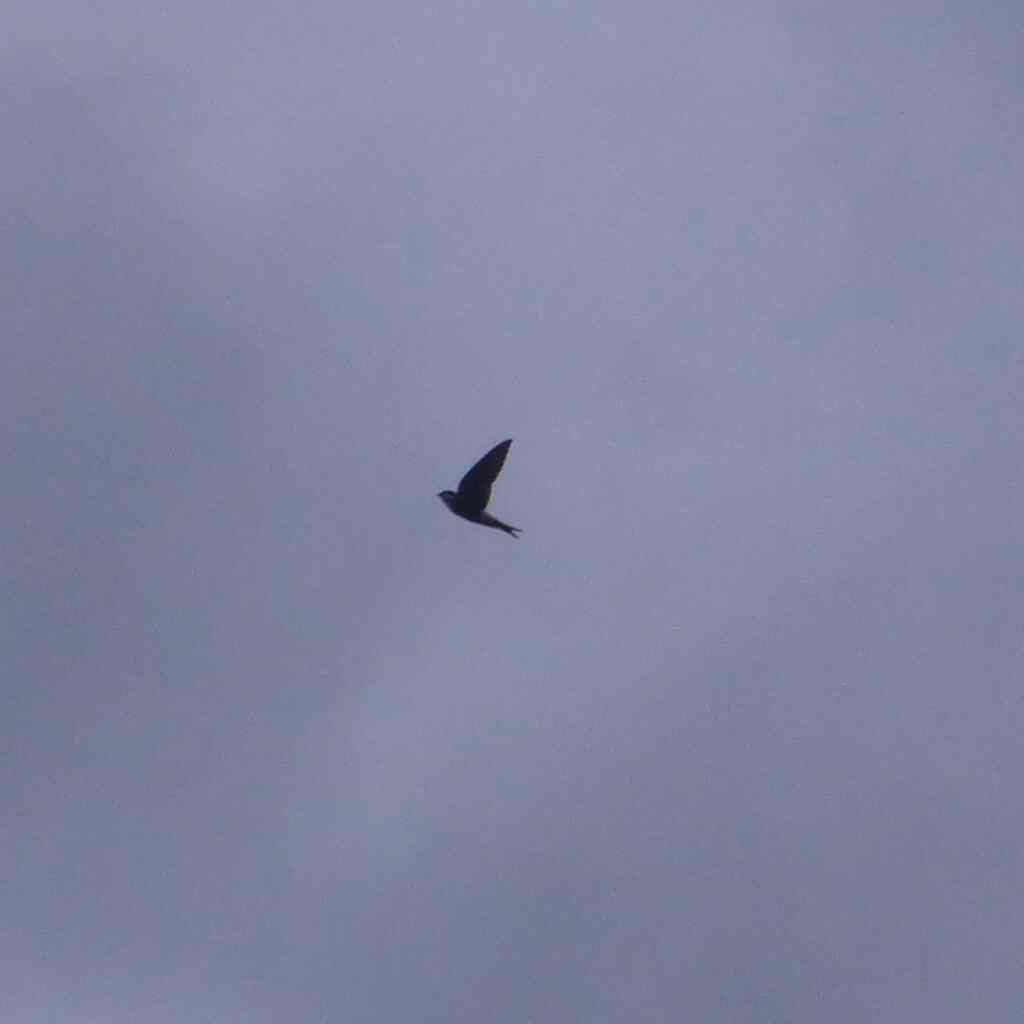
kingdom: Animalia
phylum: Chordata
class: Aves
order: Passeriformes
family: Hirundinidae
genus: Delichon
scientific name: Delichon urbicum
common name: Common house martin
